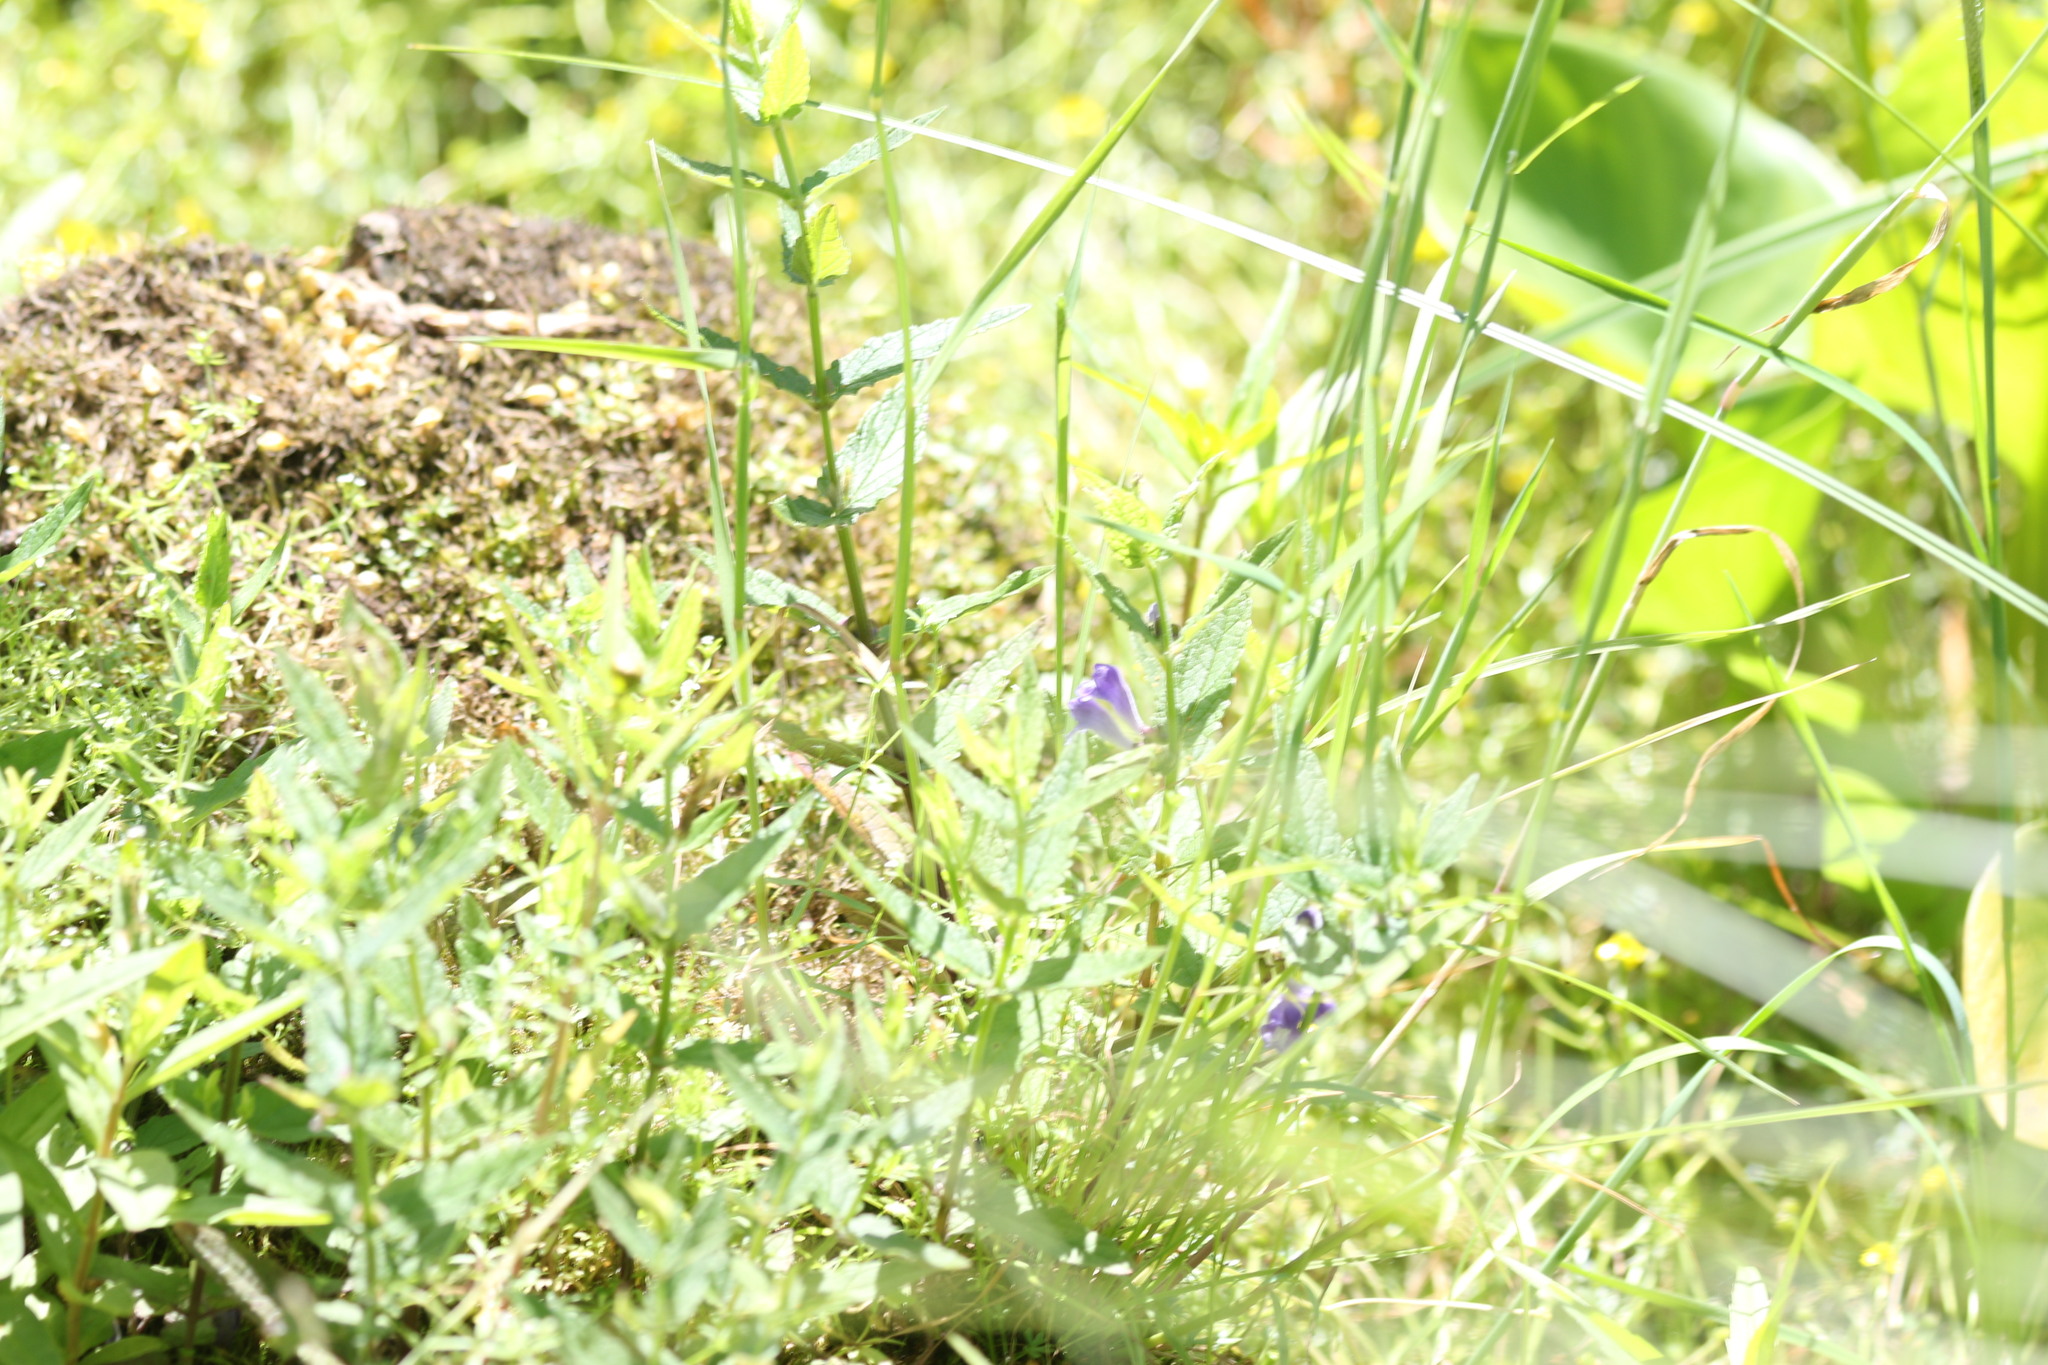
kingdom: Plantae
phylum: Tracheophyta
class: Magnoliopsida
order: Lamiales
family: Lamiaceae
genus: Scutellaria
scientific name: Scutellaria galericulata
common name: Skullcap
